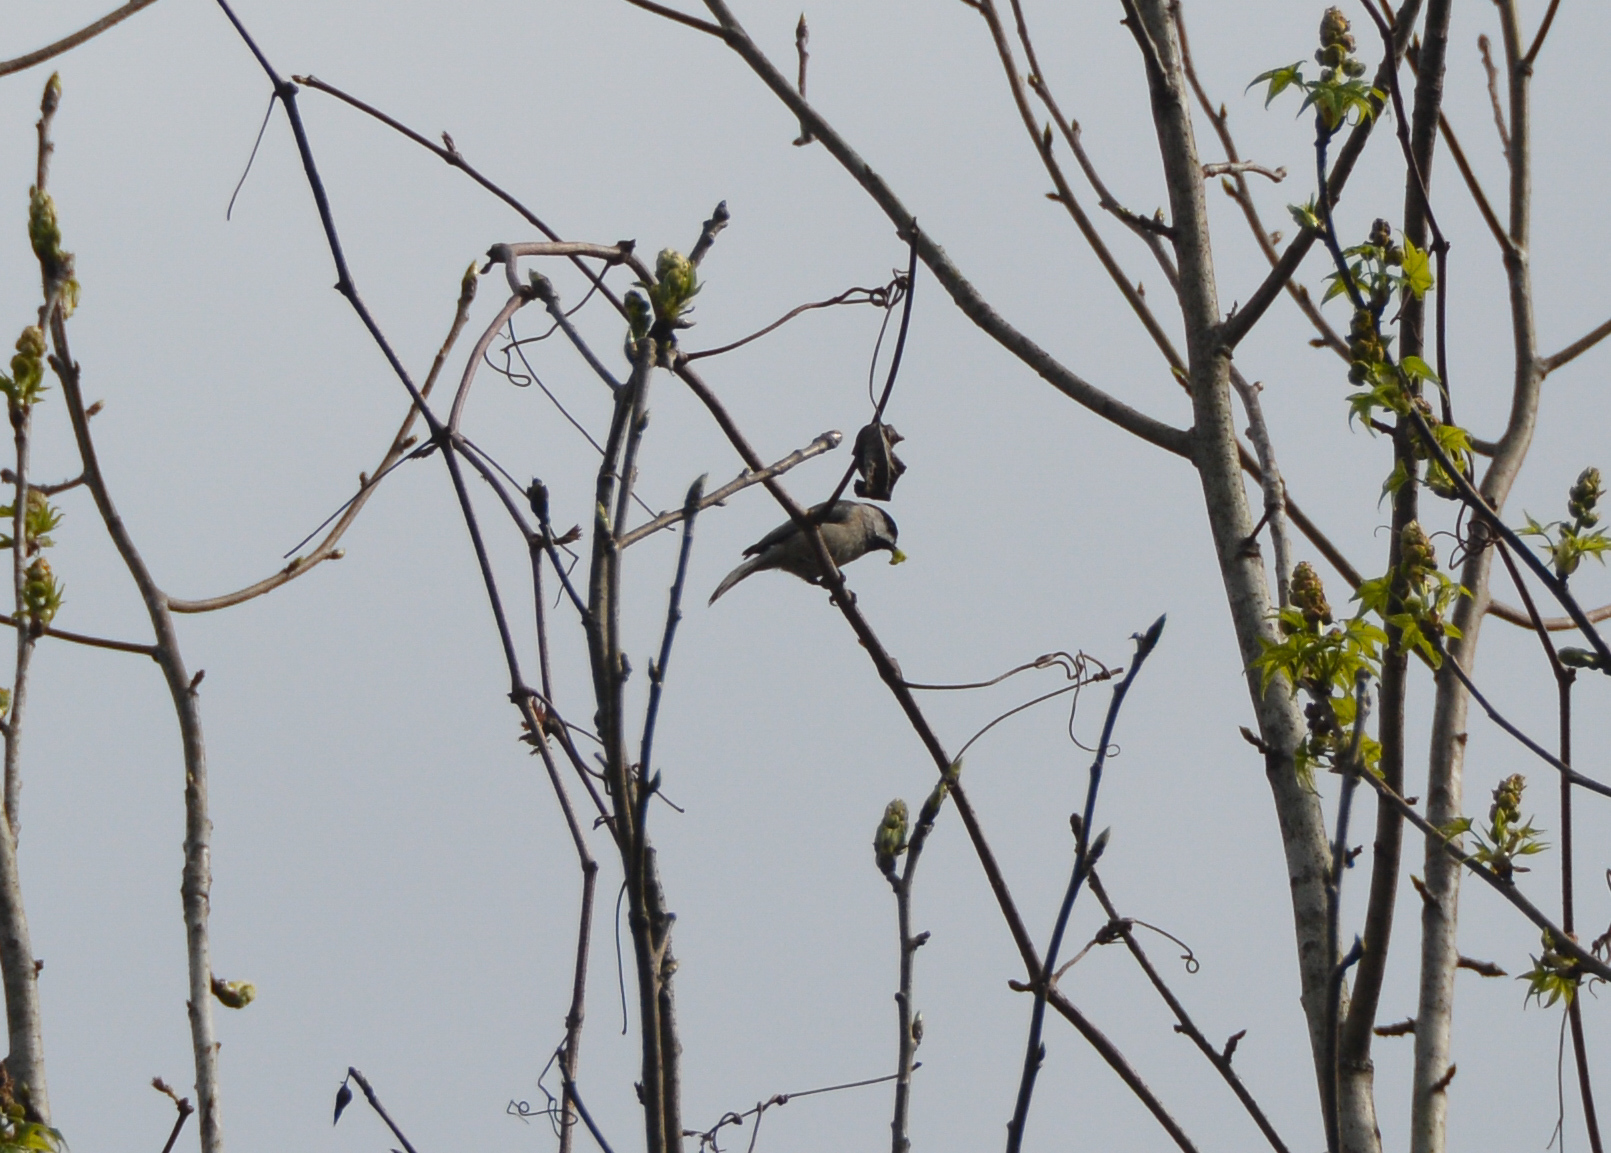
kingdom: Animalia
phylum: Chordata
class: Aves
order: Passeriformes
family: Paridae
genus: Poecile
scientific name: Poecile carolinensis
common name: Carolina chickadee
